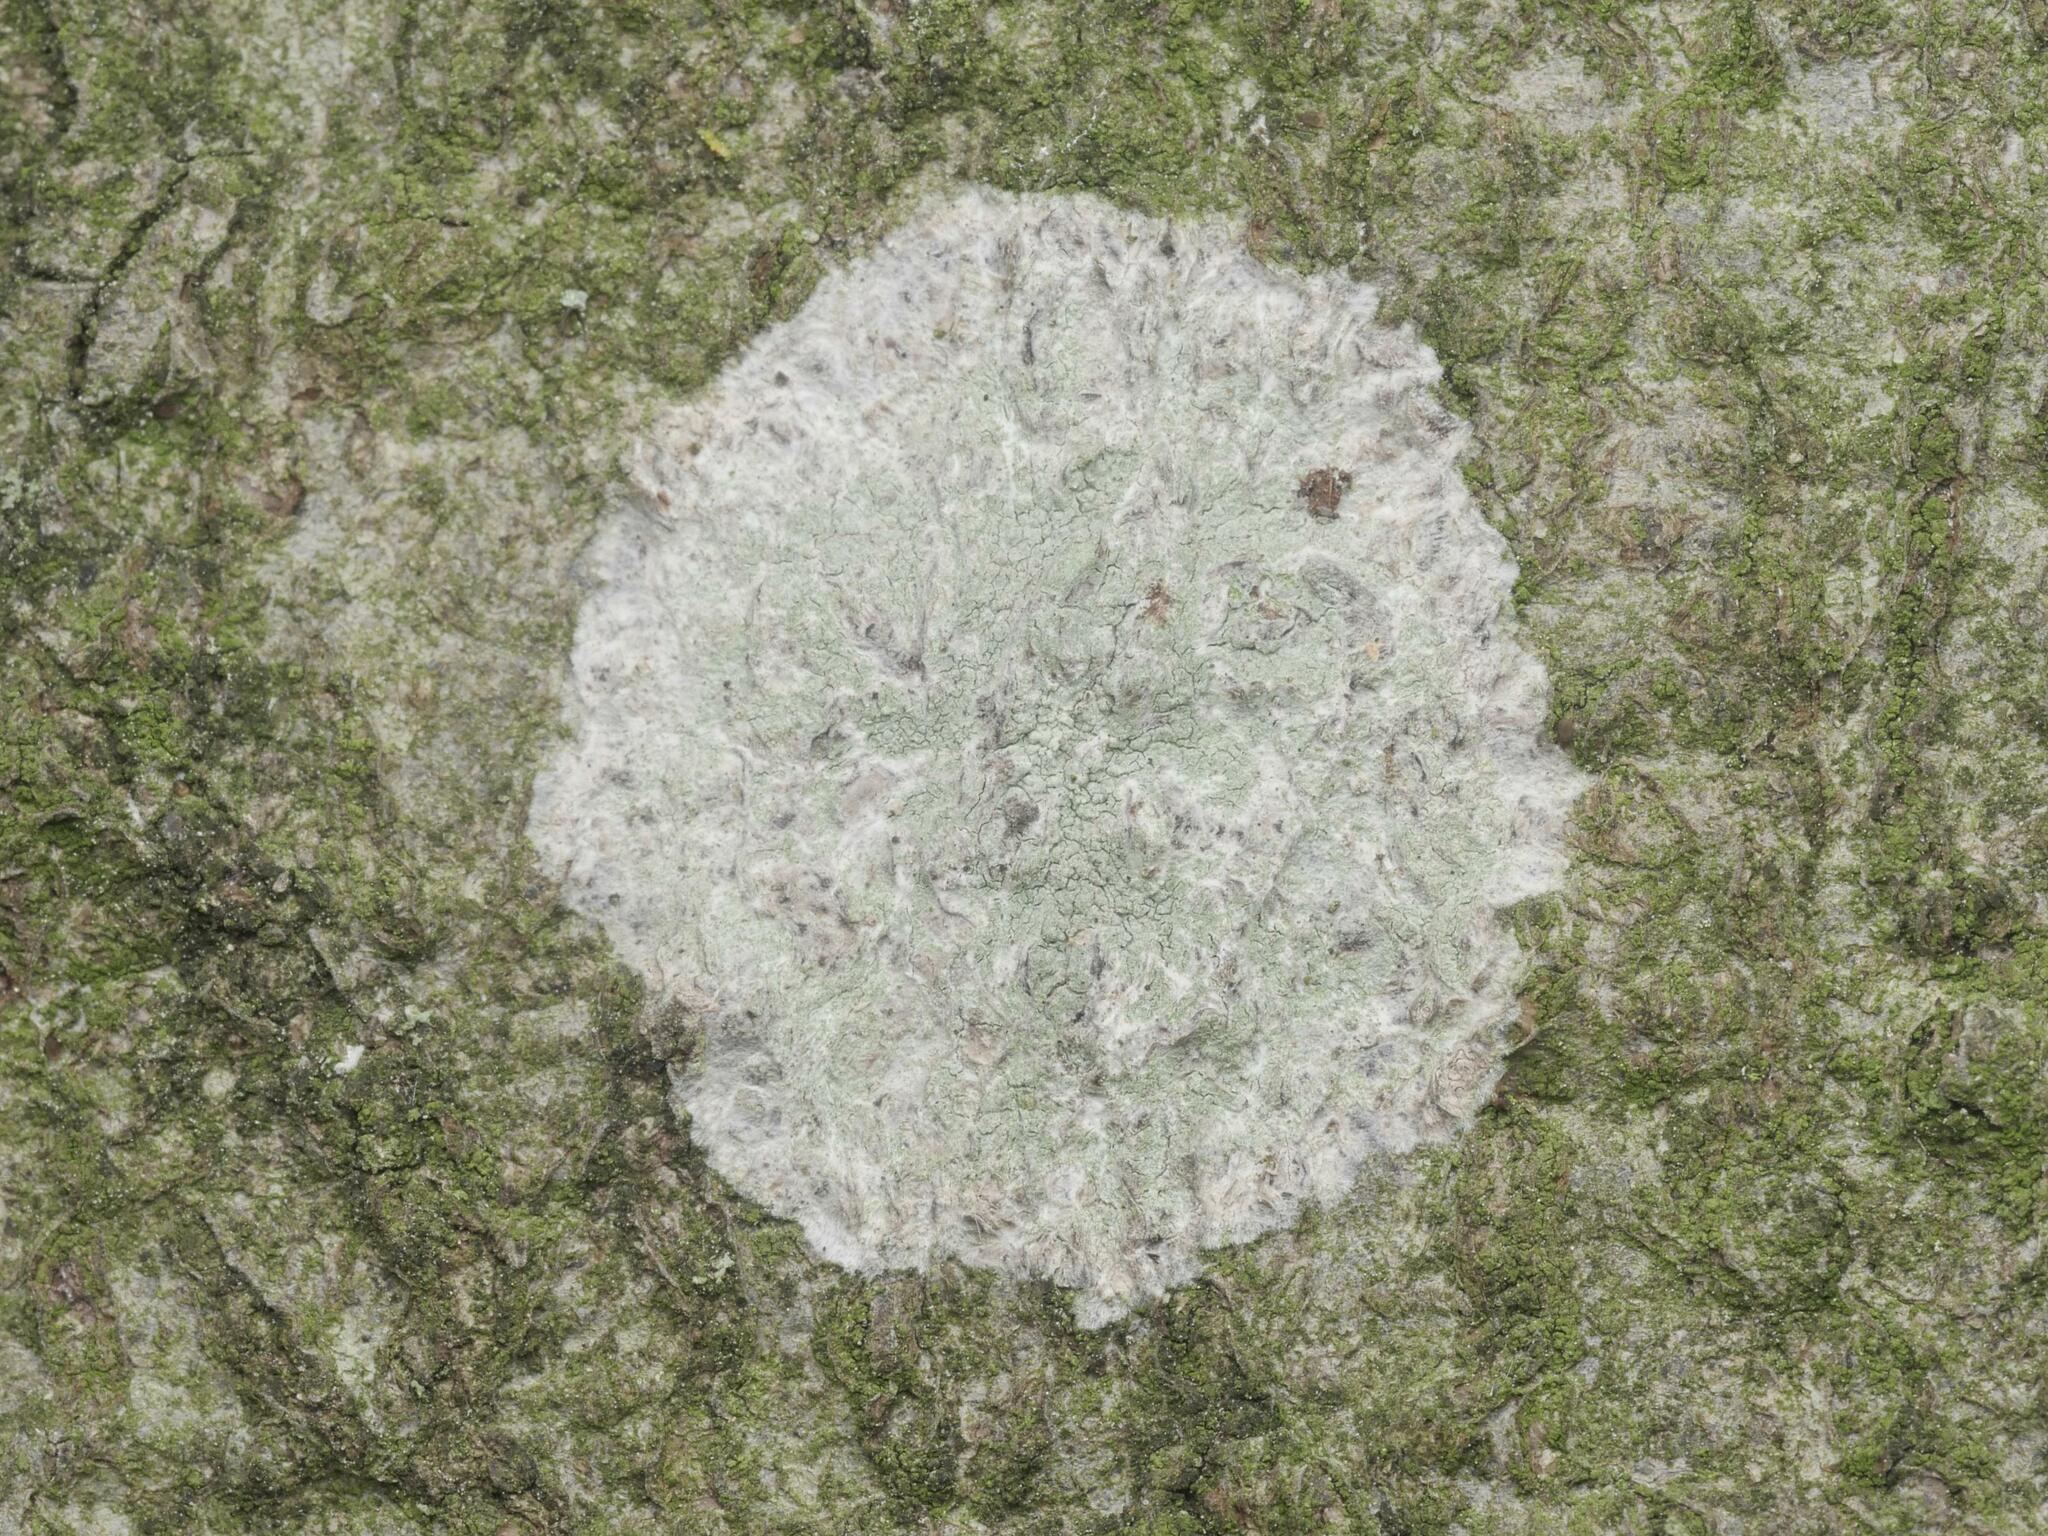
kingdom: Fungi
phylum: Ascomycota
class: Lecanoromycetes
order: Ostropales
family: Phlyctidaceae
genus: Phlyctis
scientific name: Phlyctis argena
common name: Whitewash lichen
